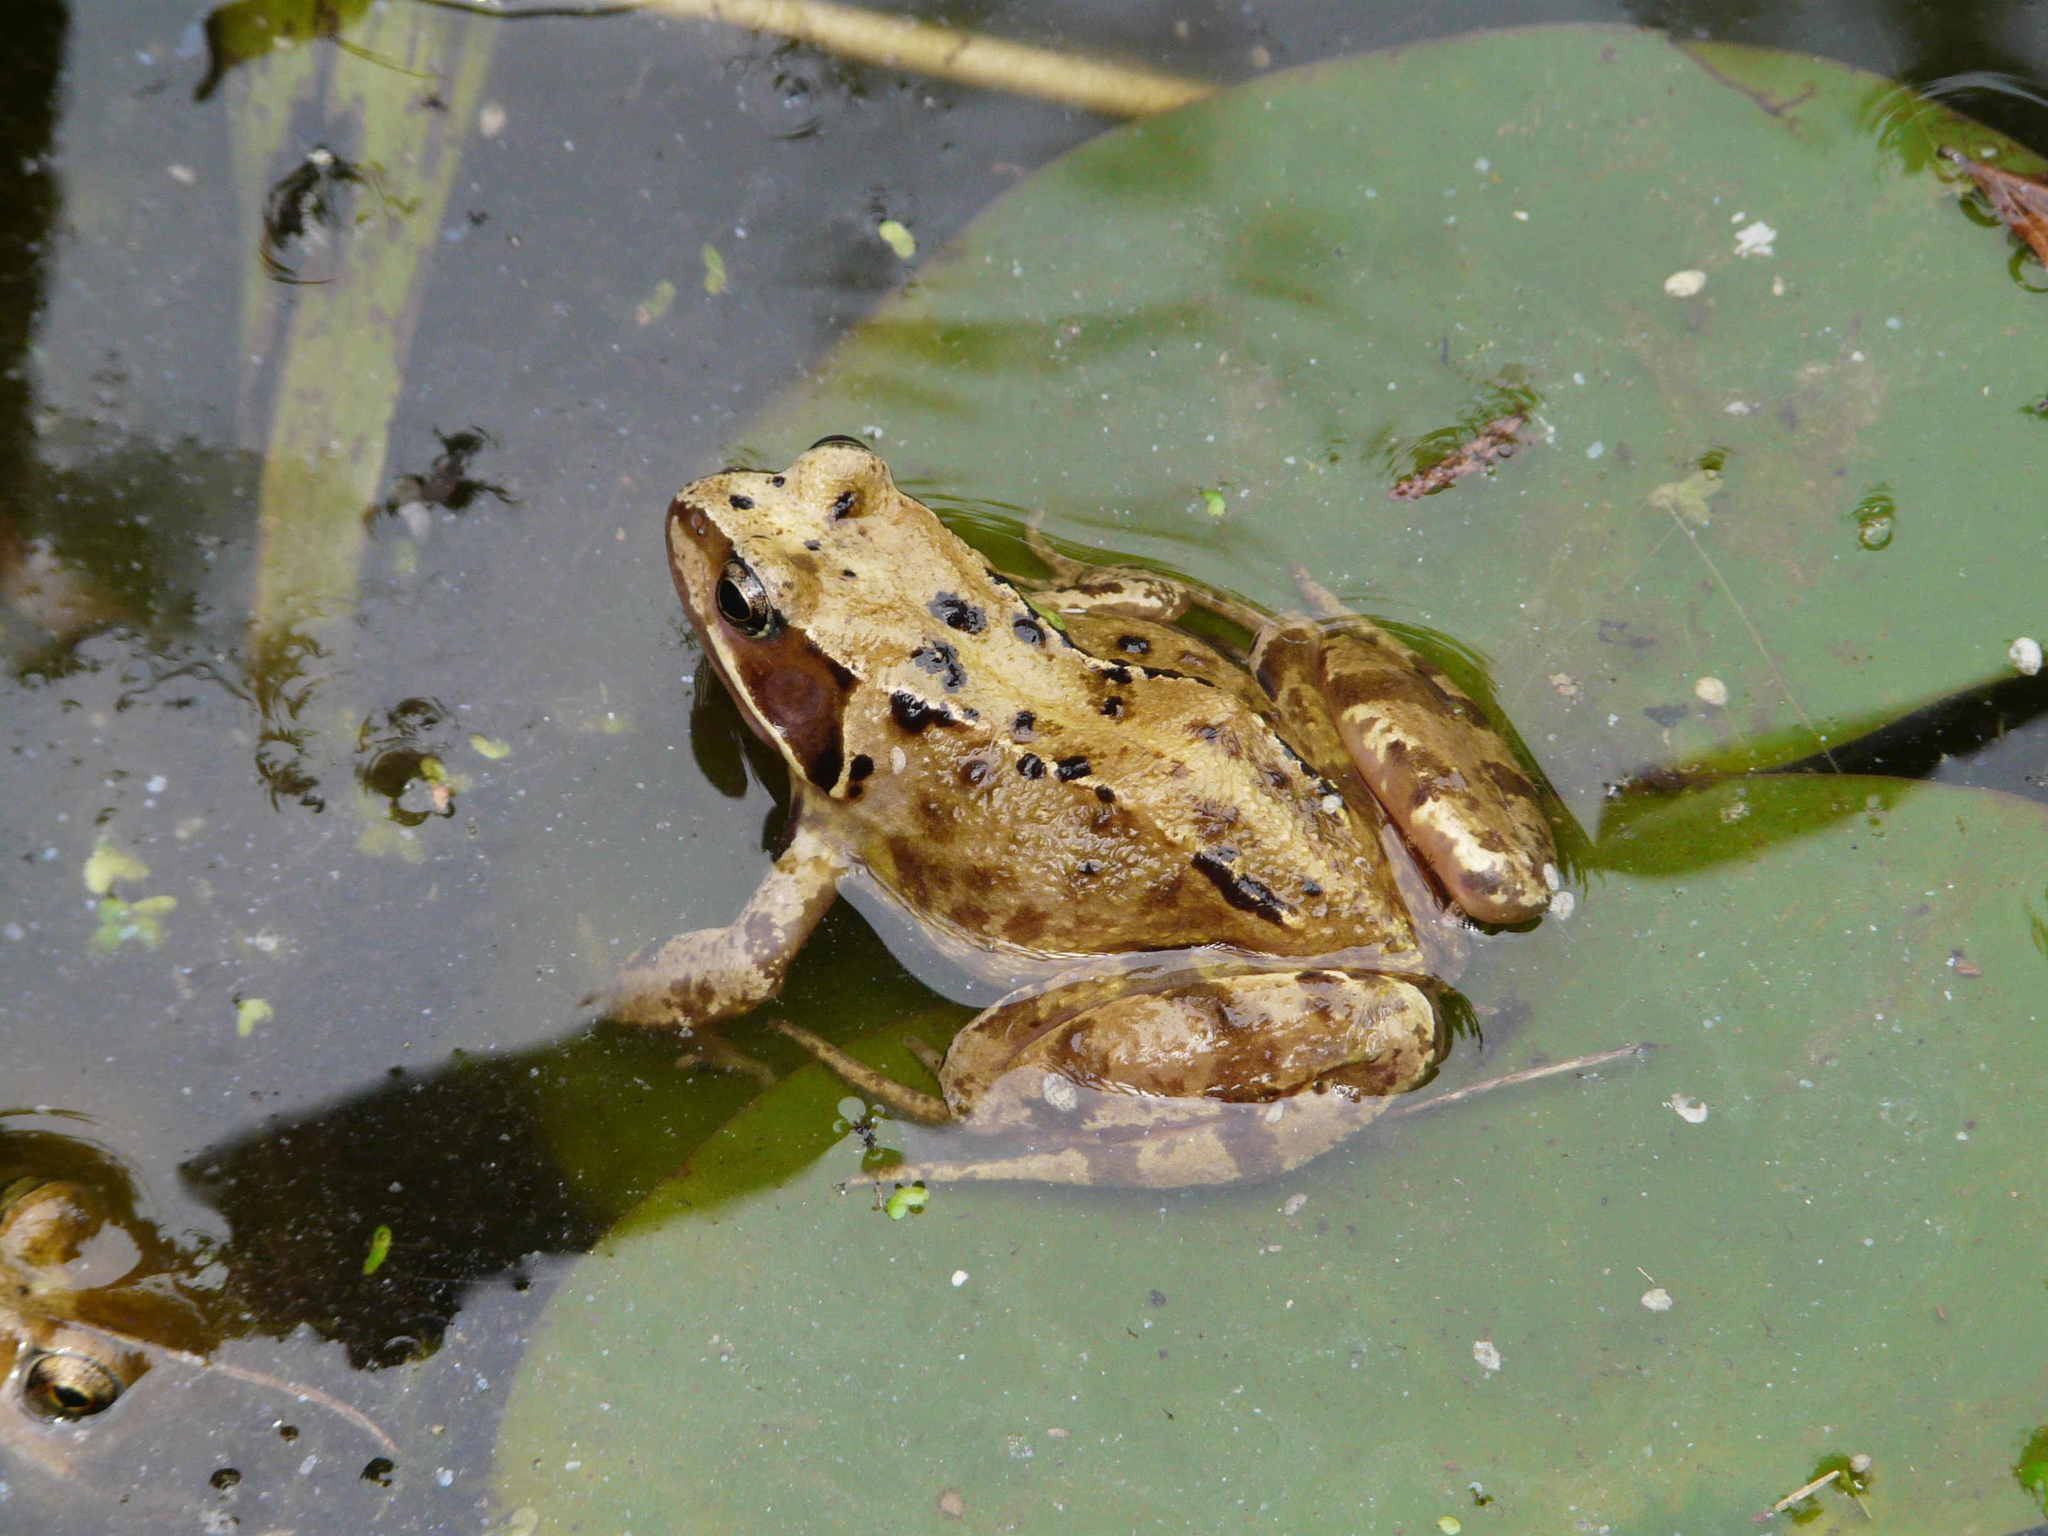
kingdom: Animalia
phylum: Chordata
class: Amphibia
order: Anura
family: Ranidae
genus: Rana
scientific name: Rana temporaria
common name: Common frog
